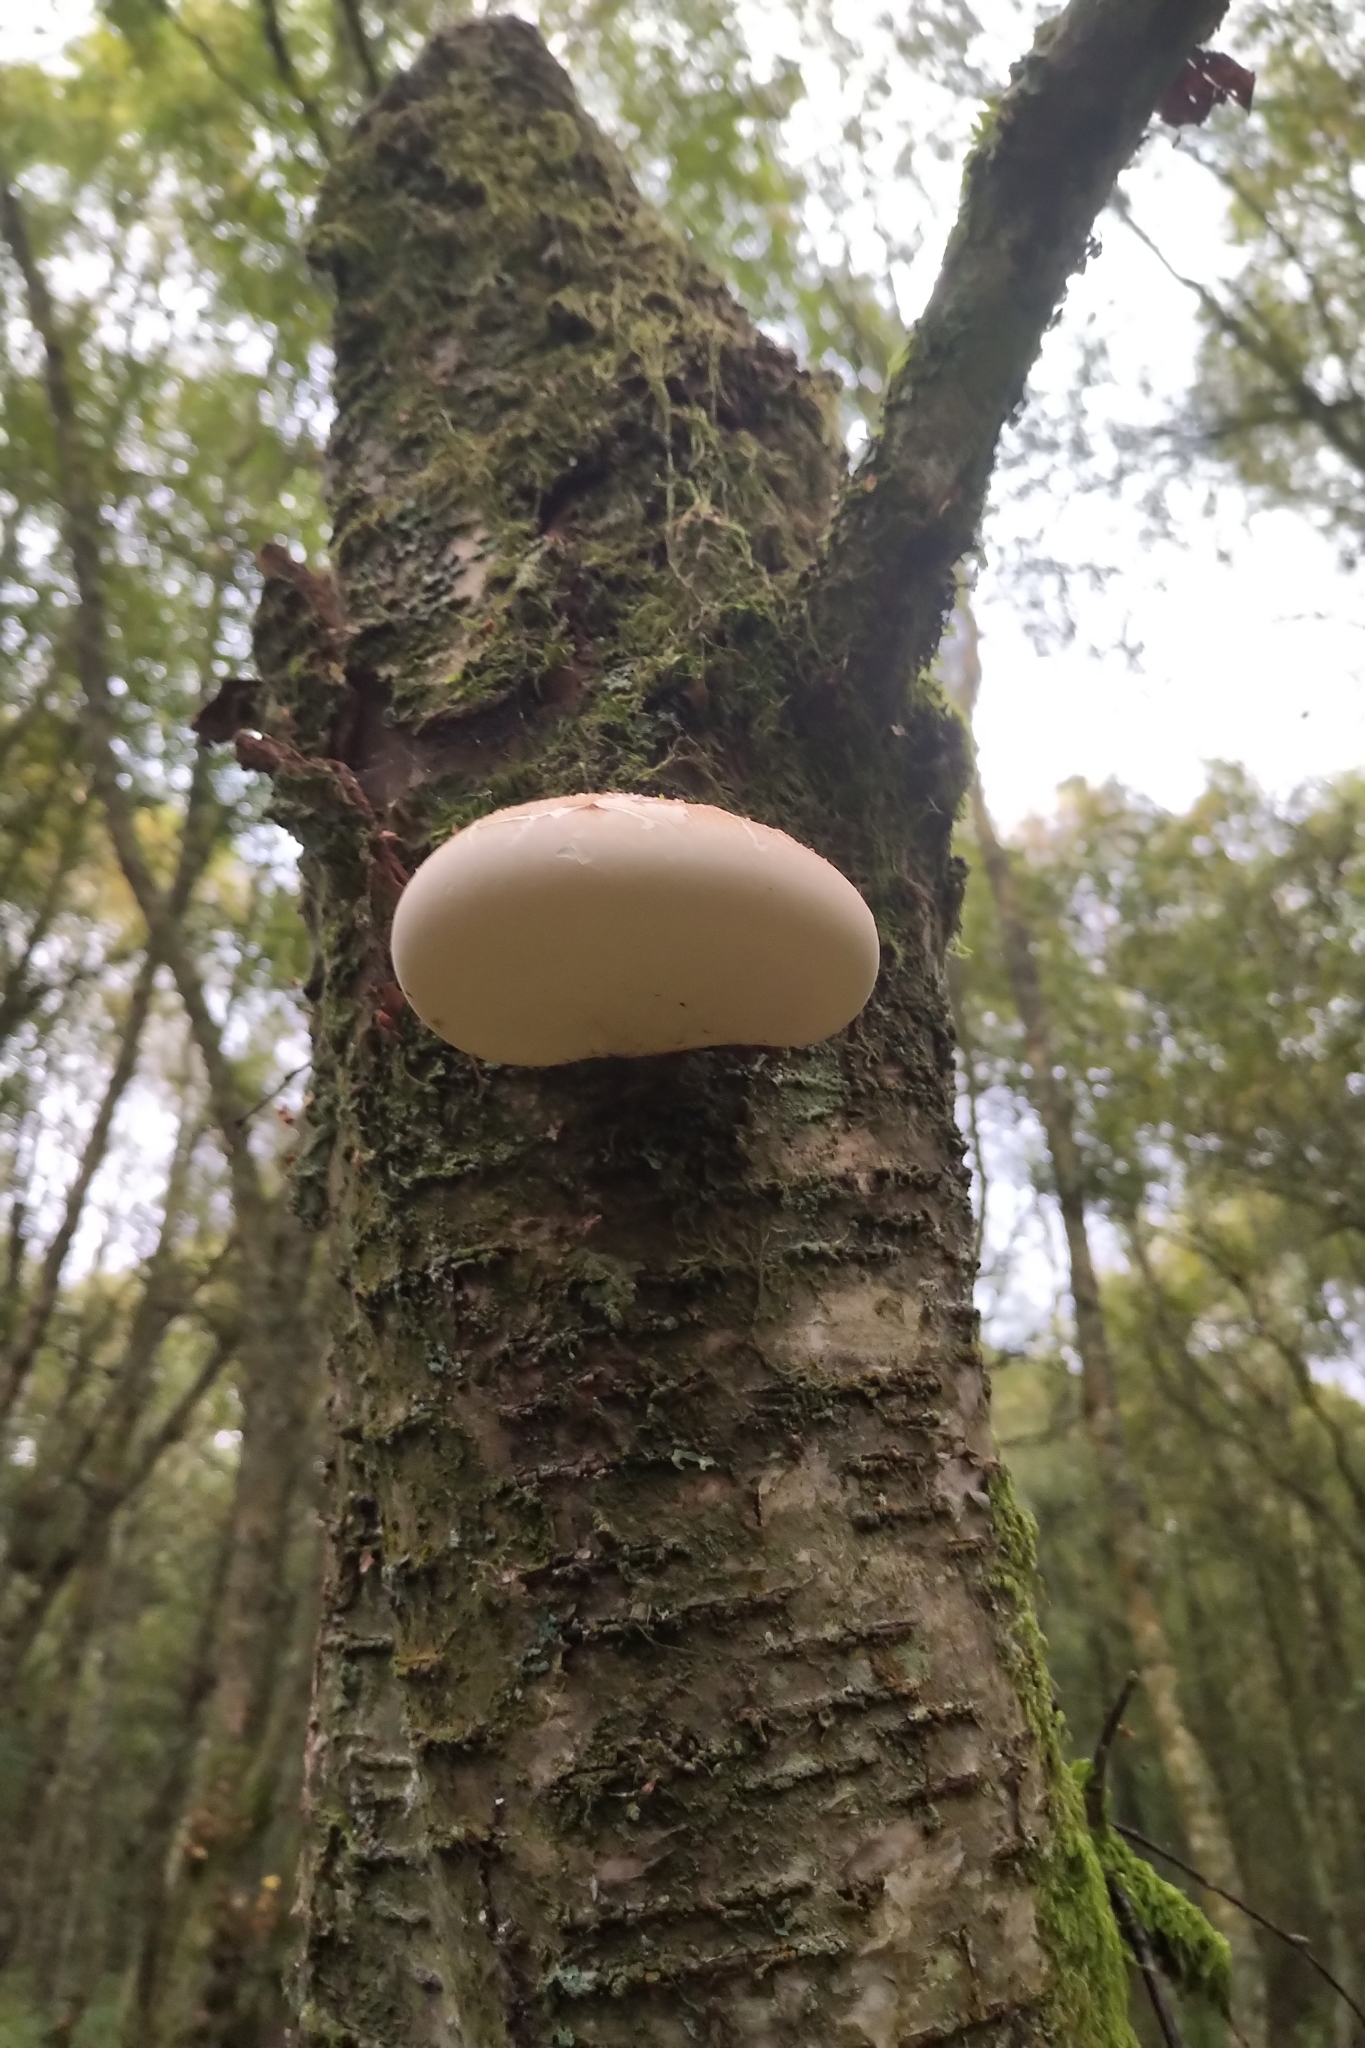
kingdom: Fungi
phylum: Basidiomycota
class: Agaricomycetes
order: Polyporales
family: Fomitopsidaceae
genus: Fomitopsis
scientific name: Fomitopsis betulina
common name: Birch polypore
